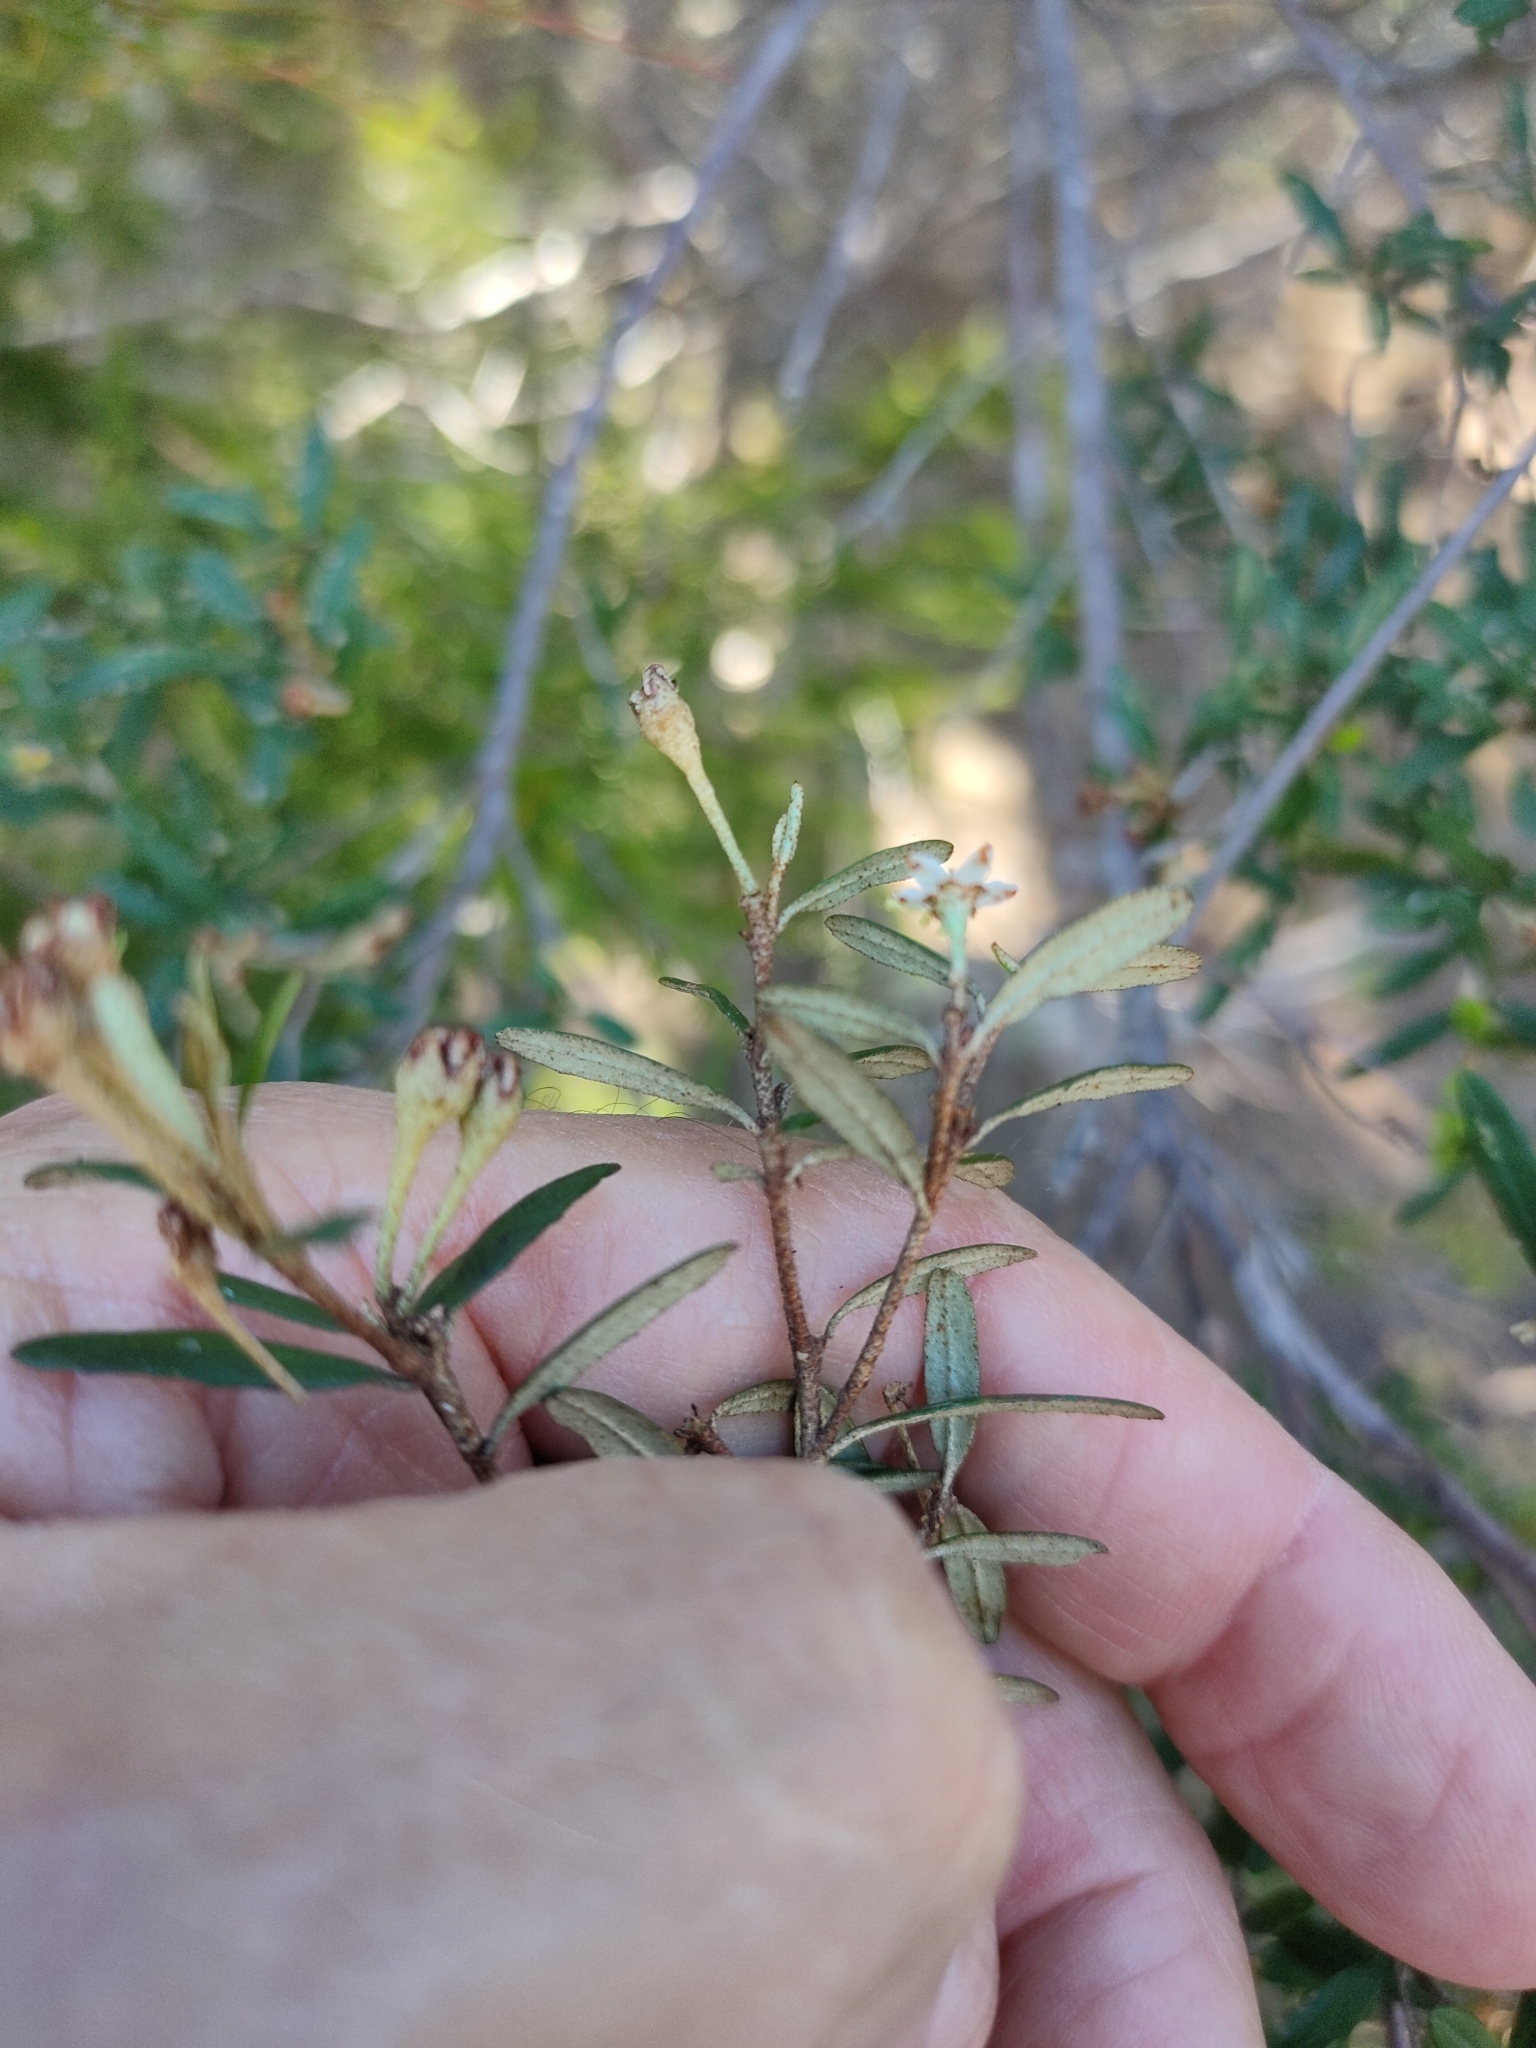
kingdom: Plantae
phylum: Tracheophyta
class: Magnoliopsida
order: Sapindales
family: Rutaceae
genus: Phebalium
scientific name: Phebalium woombye
